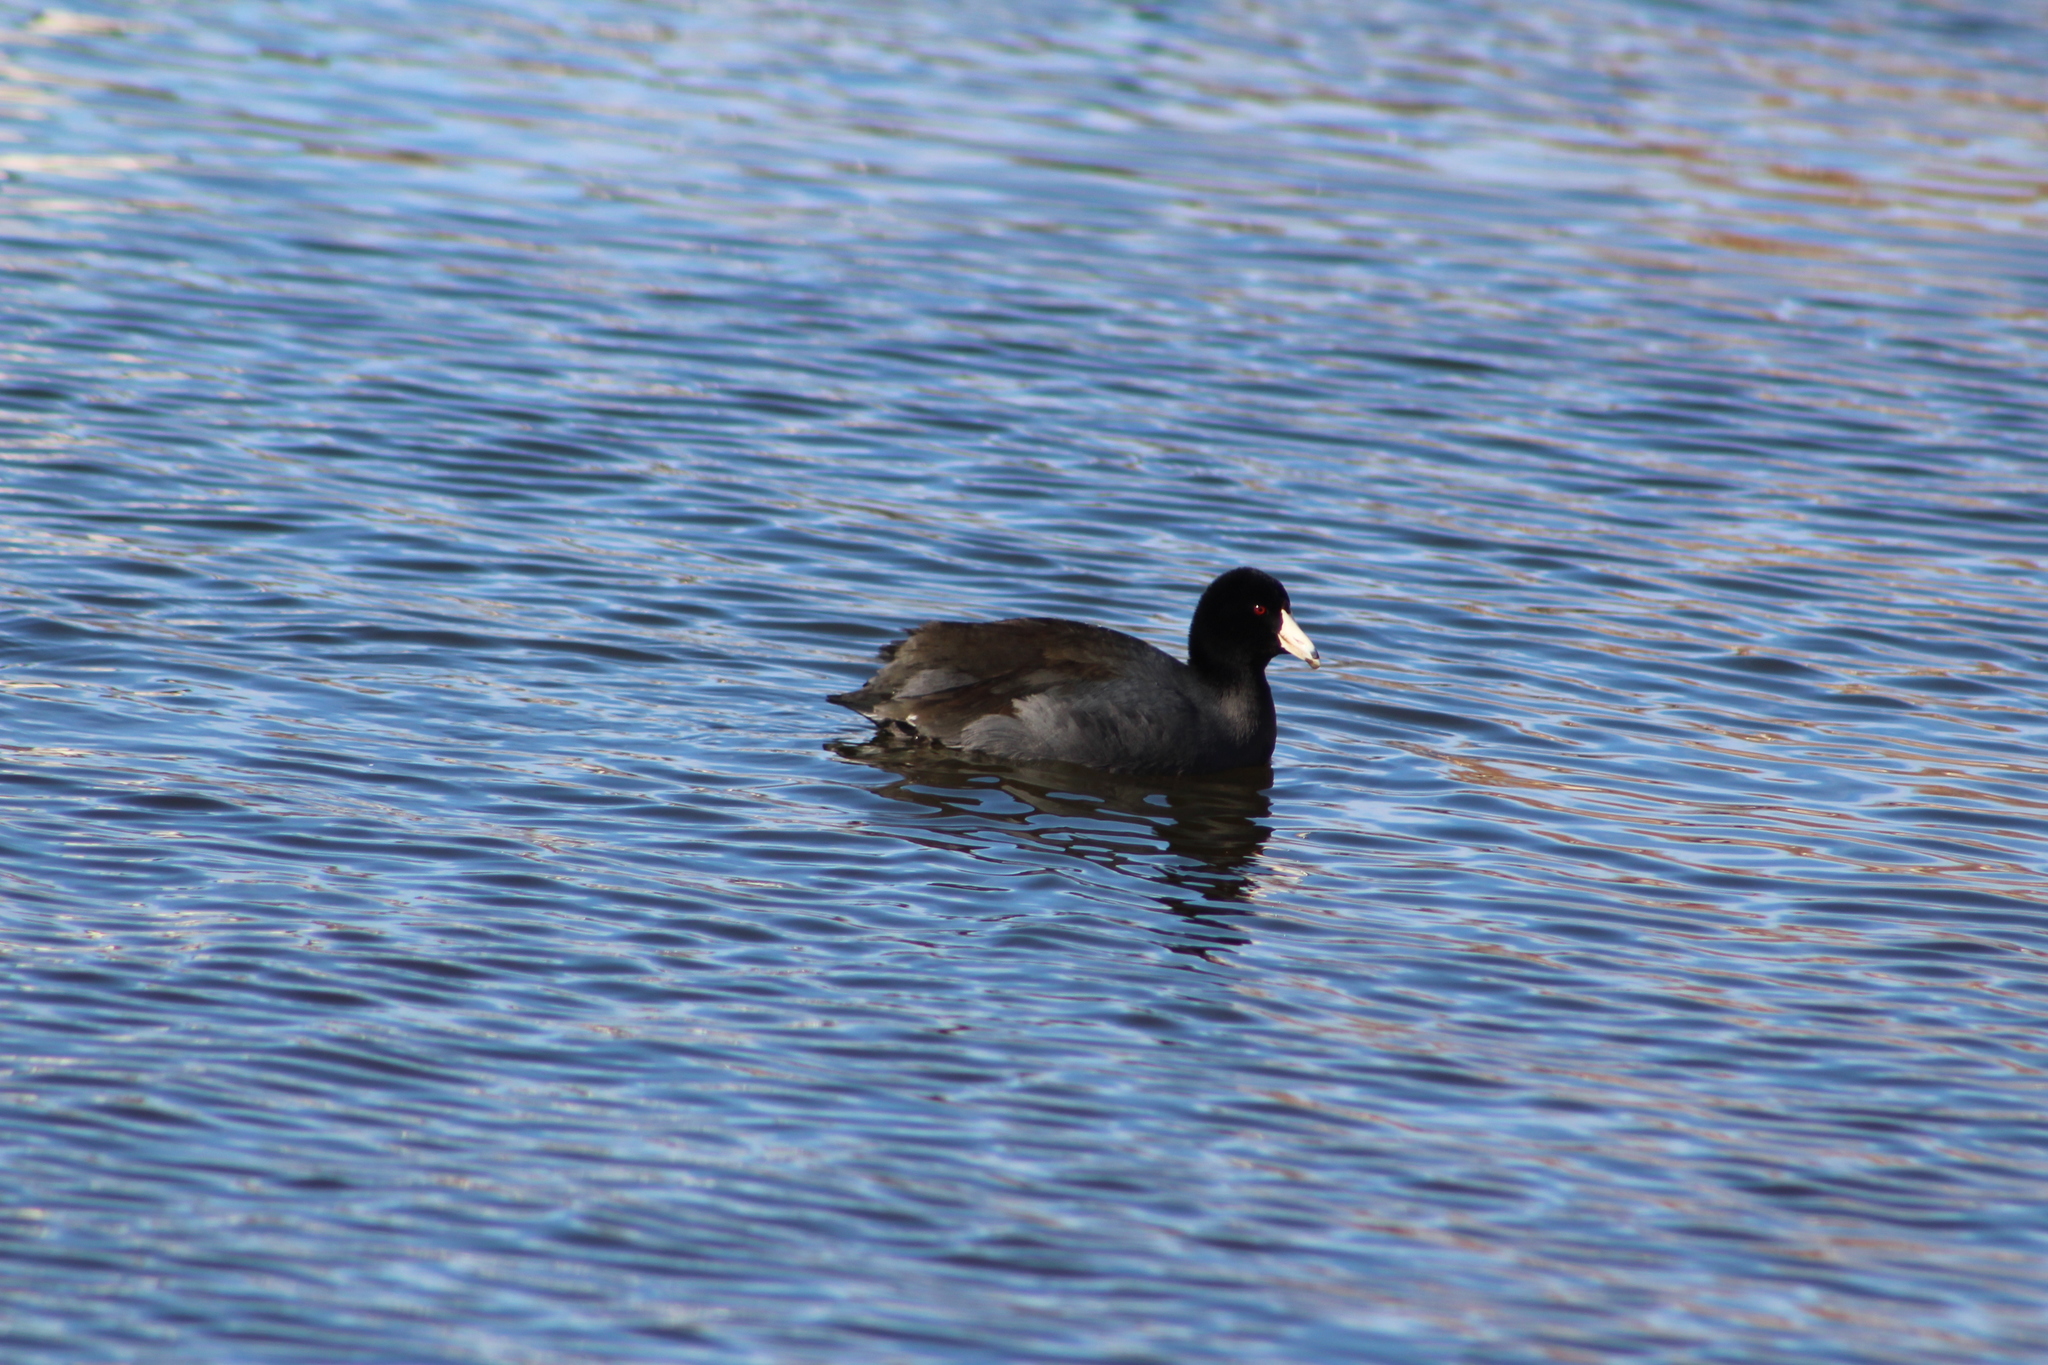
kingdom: Animalia
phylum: Chordata
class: Aves
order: Gruiformes
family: Rallidae
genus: Fulica
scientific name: Fulica americana
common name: American coot
